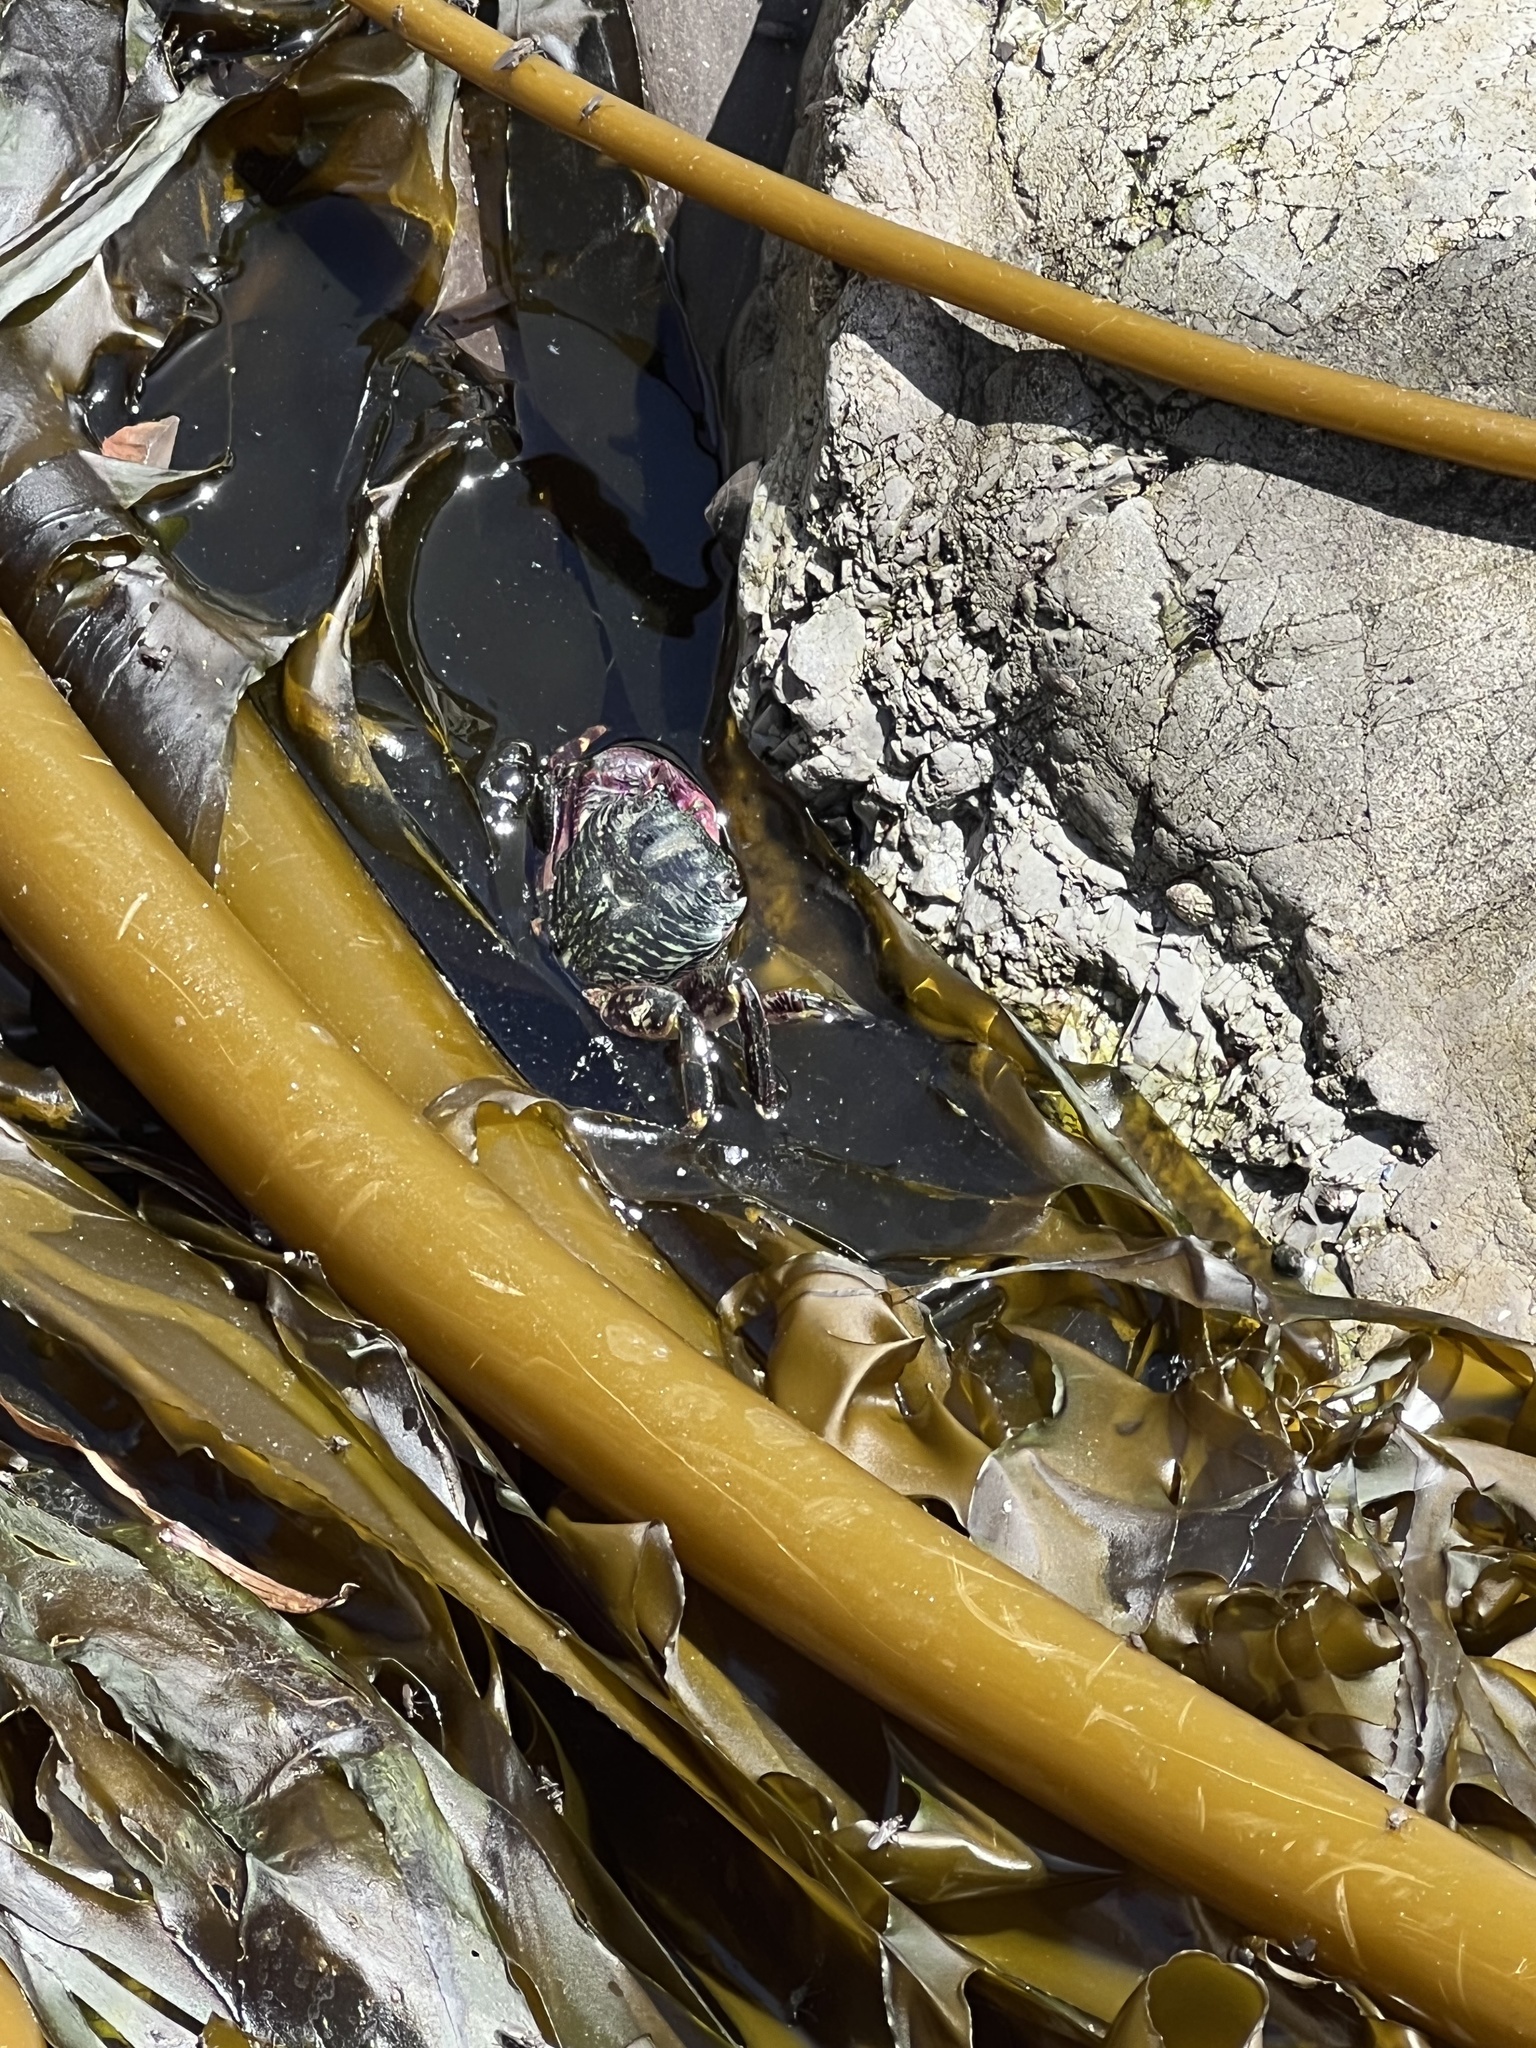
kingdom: Animalia
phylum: Arthropoda
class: Malacostraca
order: Decapoda
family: Grapsidae
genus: Pachygrapsus
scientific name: Pachygrapsus crassipes
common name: Striped shore crab
